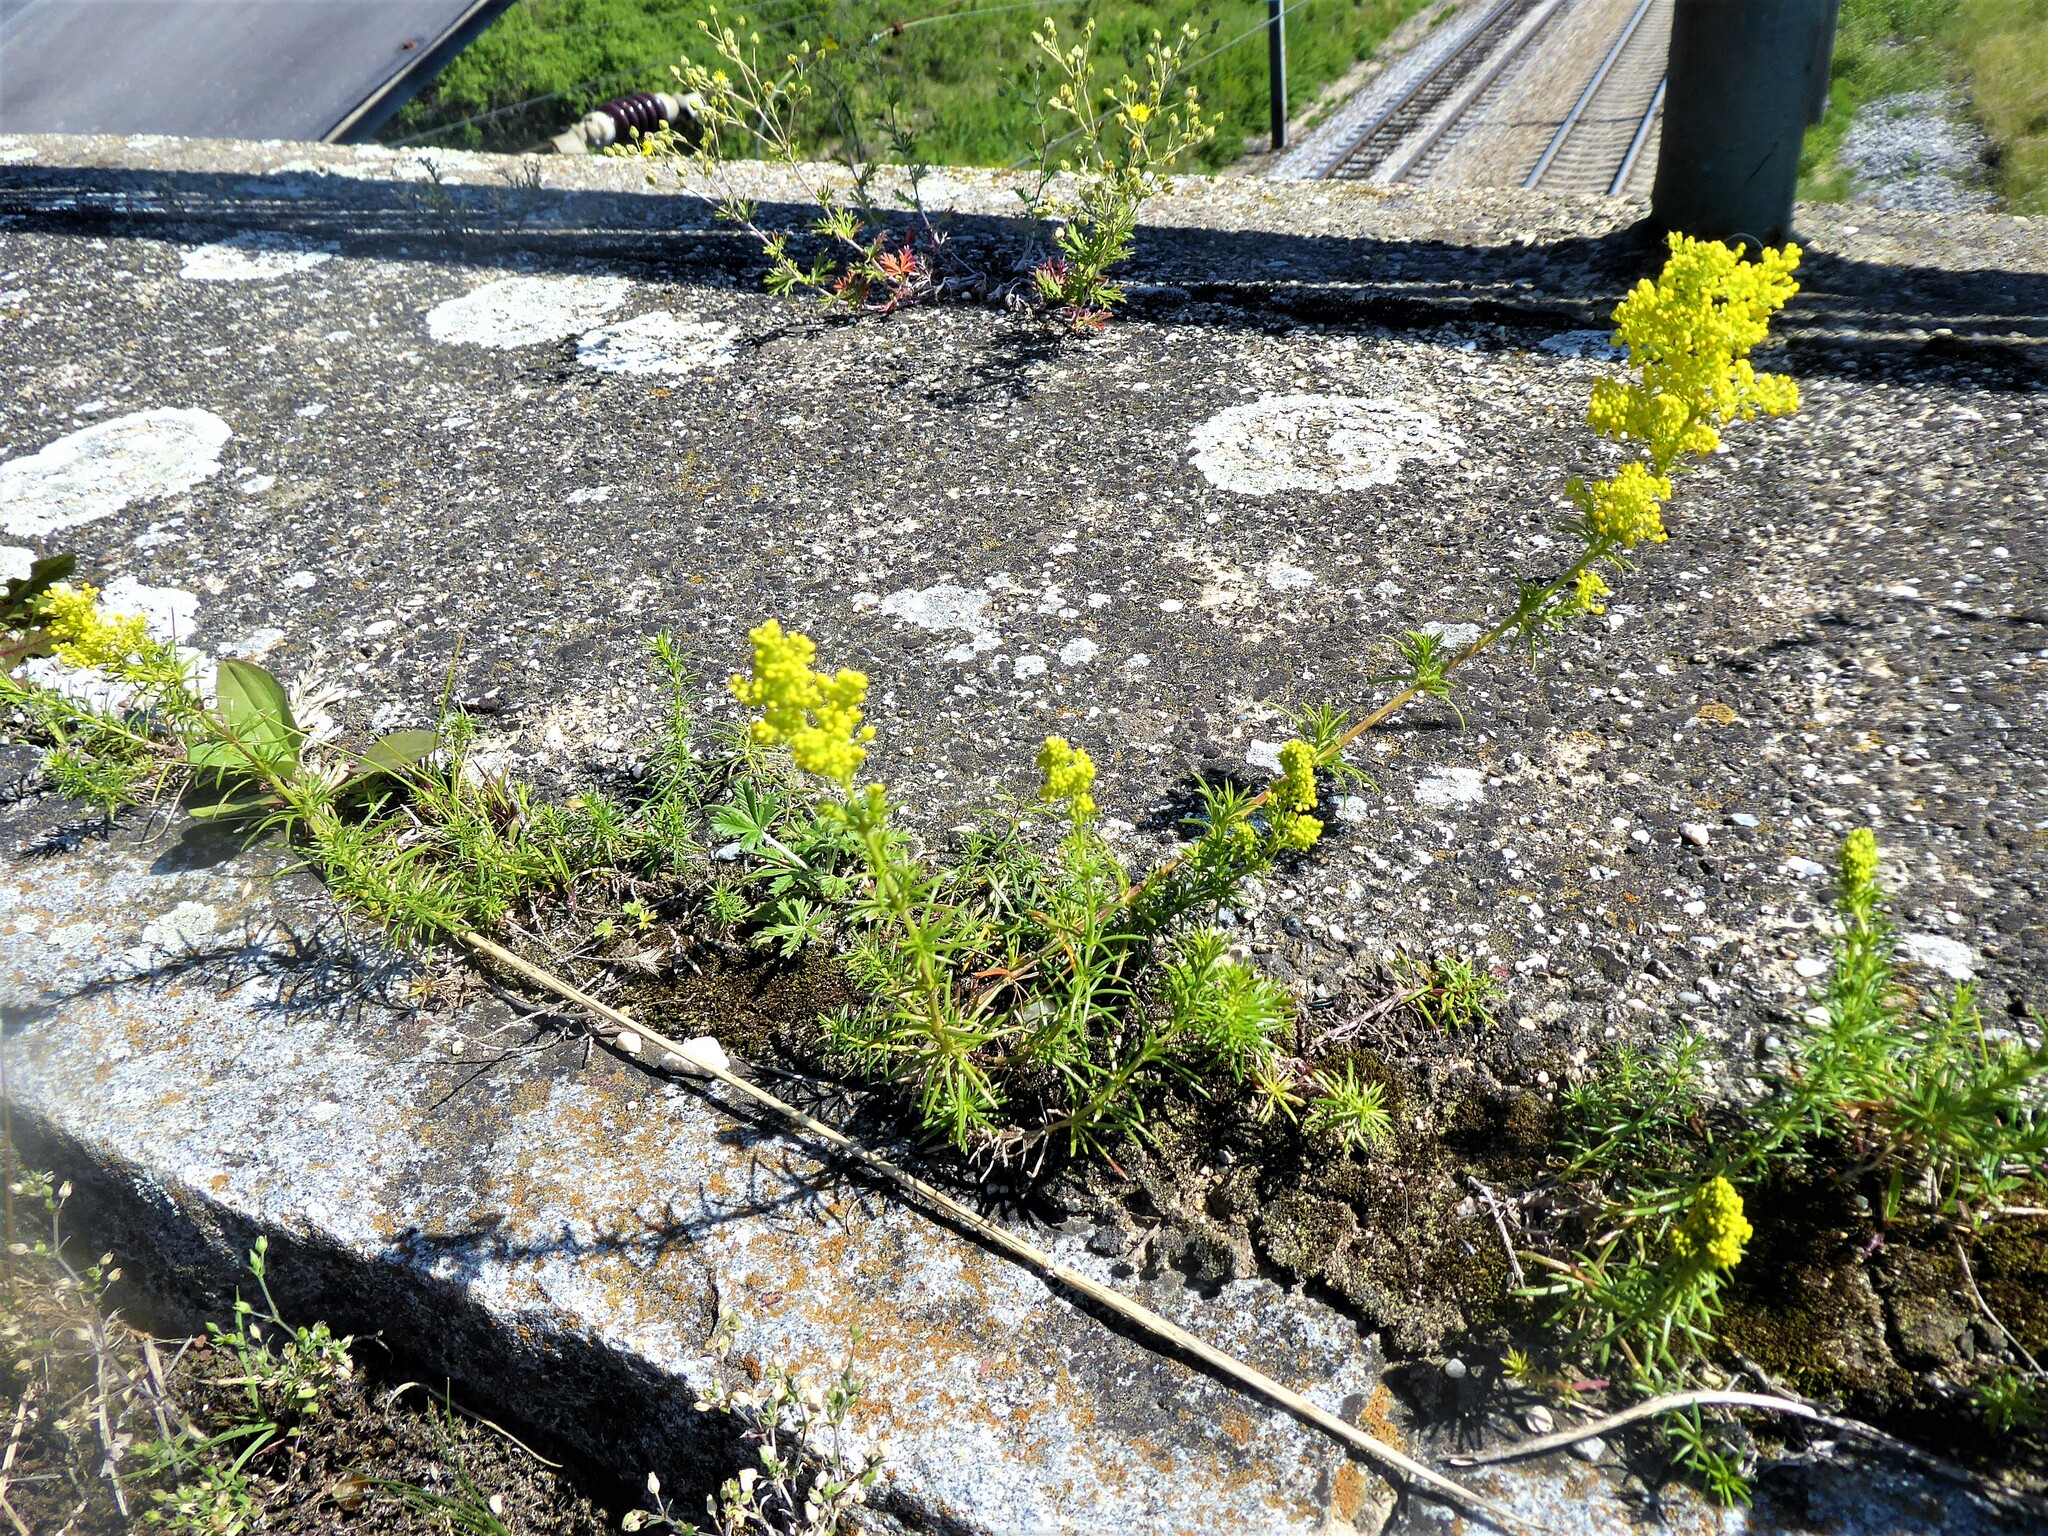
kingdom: Plantae
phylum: Tracheophyta
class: Magnoliopsida
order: Gentianales
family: Rubiaceae
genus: Galium
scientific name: Galium verum
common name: Lady's bedstraw
